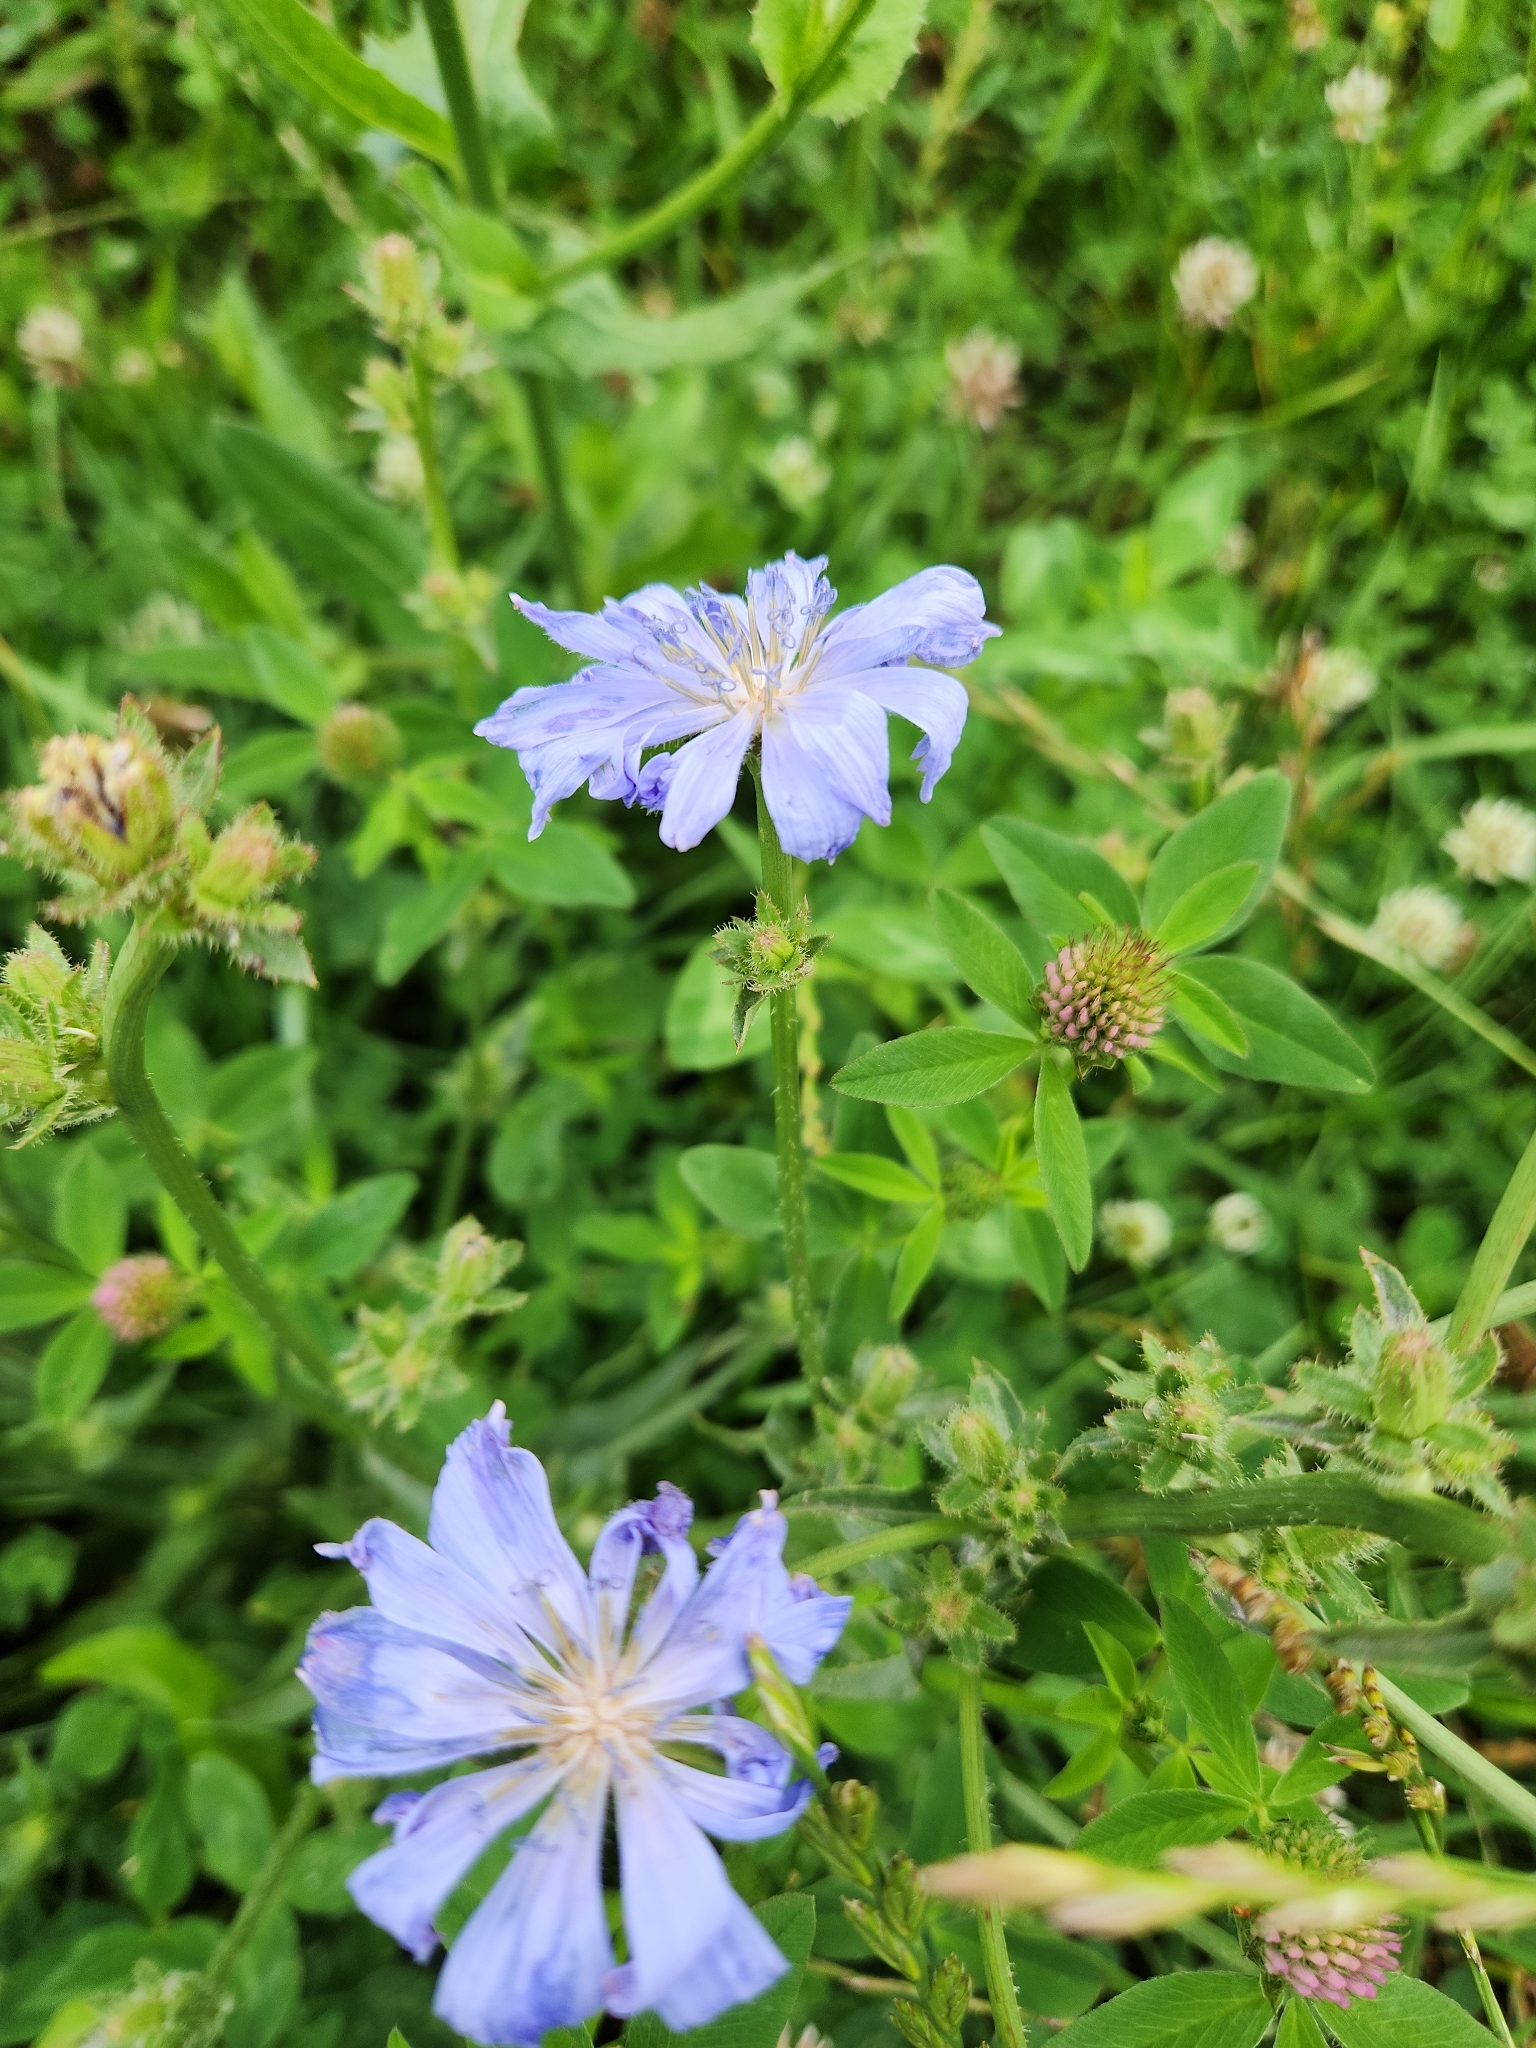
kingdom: Plantae
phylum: Tracheophyta
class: Magnoliopsida
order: Asterales
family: Asteraceae
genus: Cichorium
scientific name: Cichorium intybus
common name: Chicory
